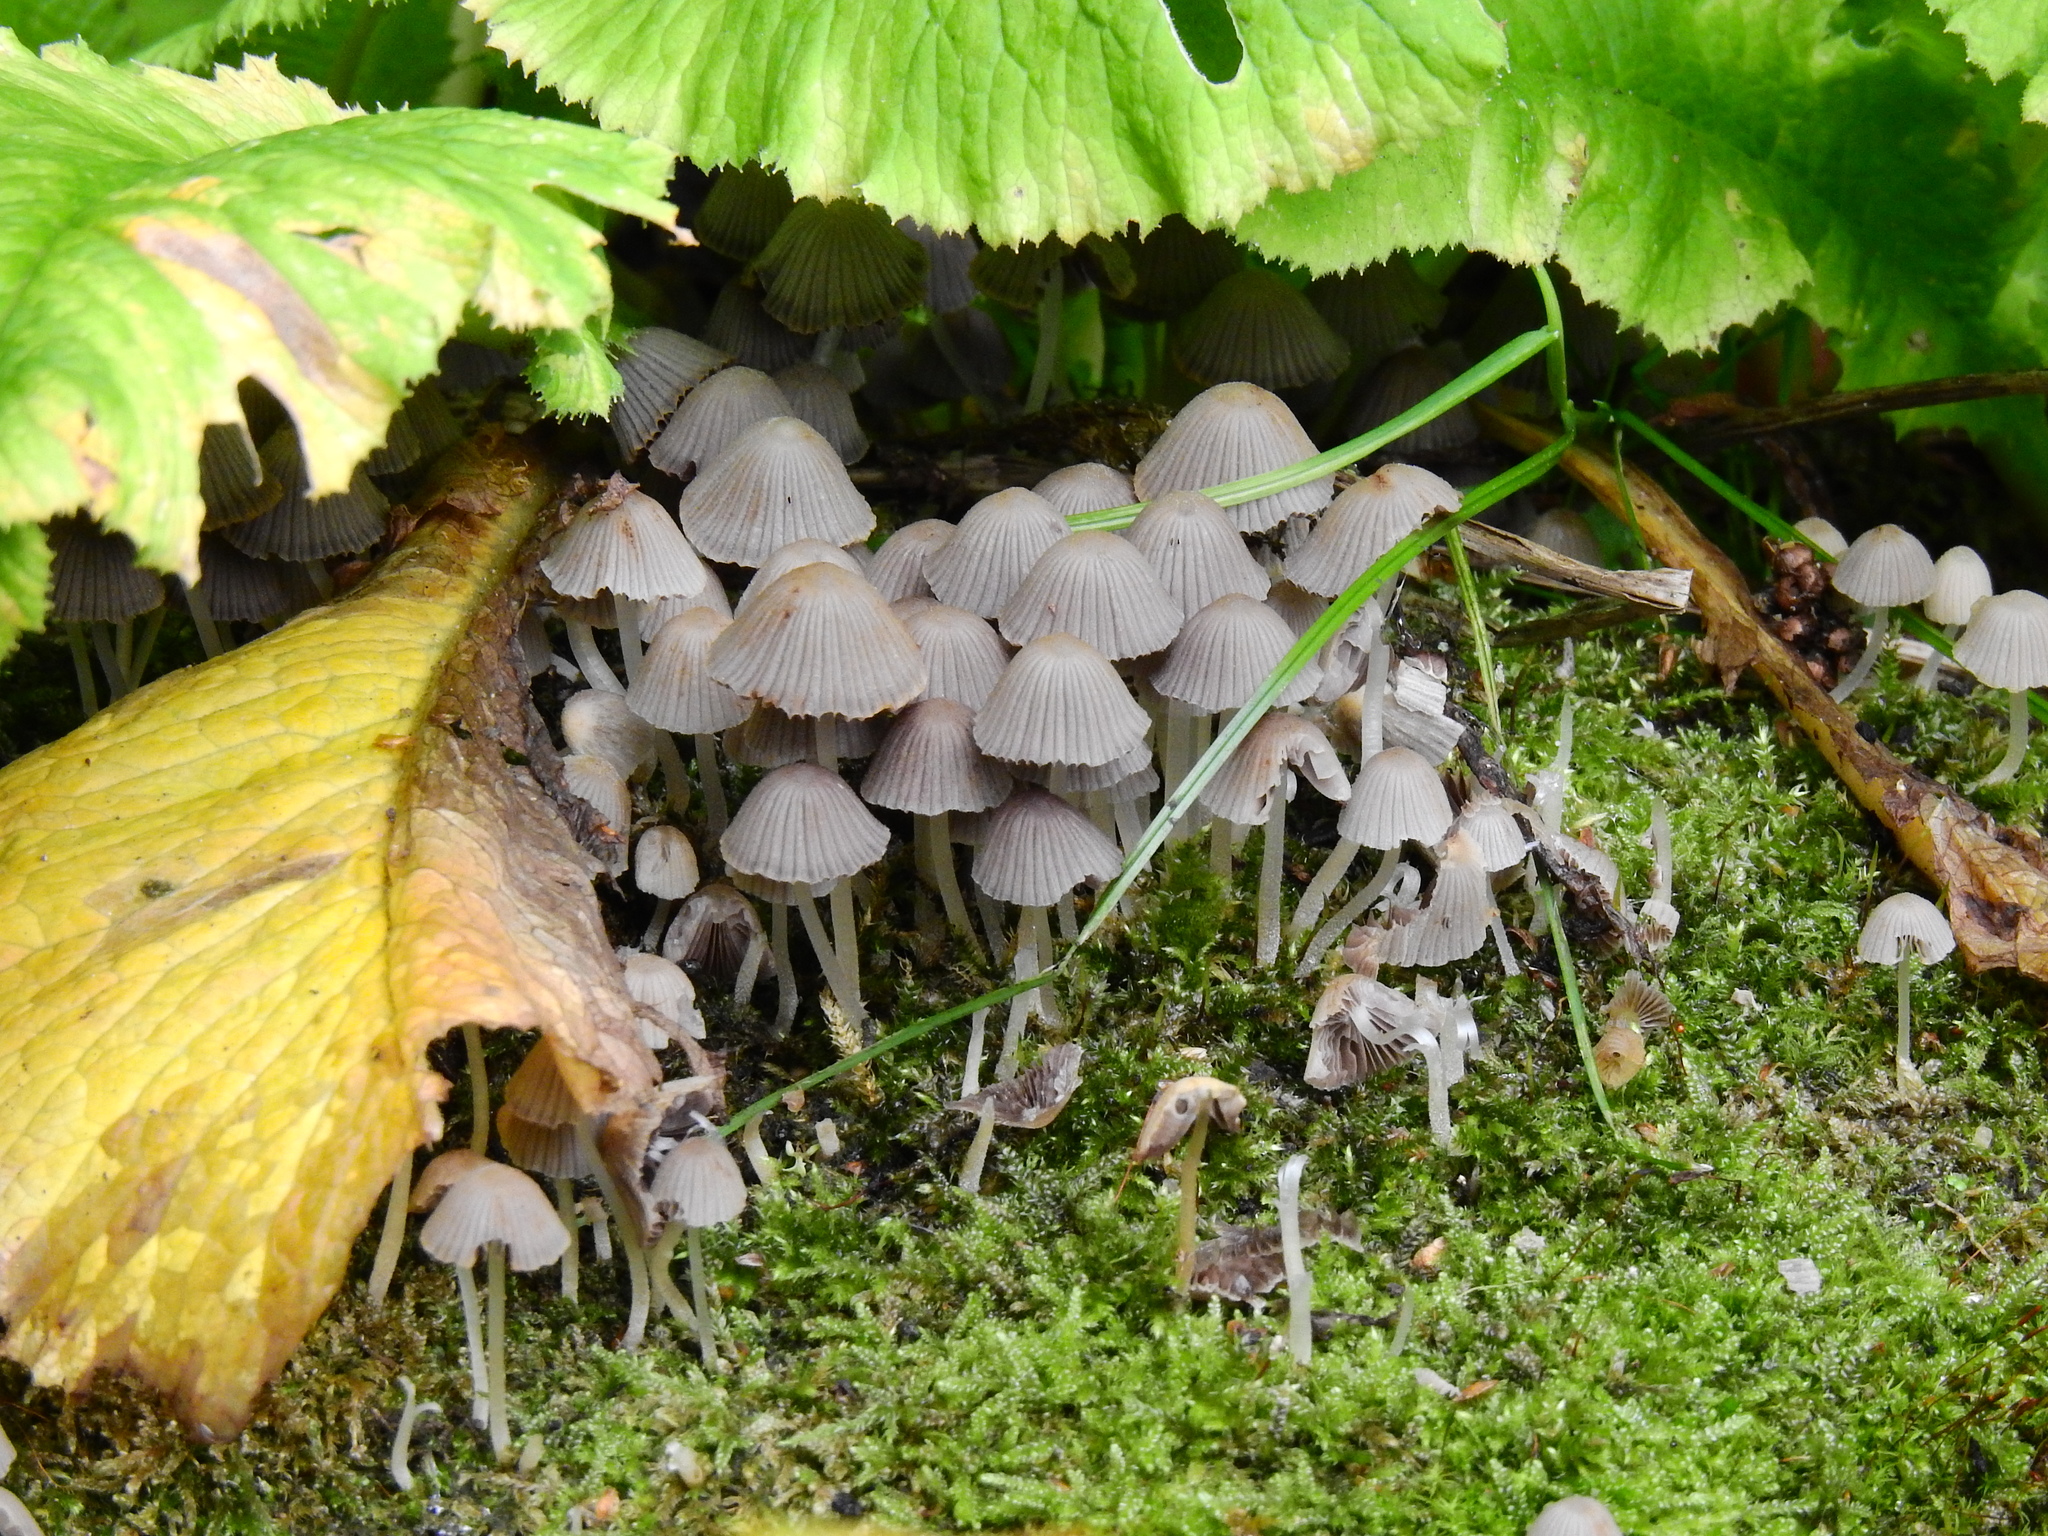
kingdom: Fungi
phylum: Basidiomycota
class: Agaricomycetes
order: Agaricales
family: Psathyrellaceae
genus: Coprinellus
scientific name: Coprinellus disseminatus
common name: Fairies' bonnets
